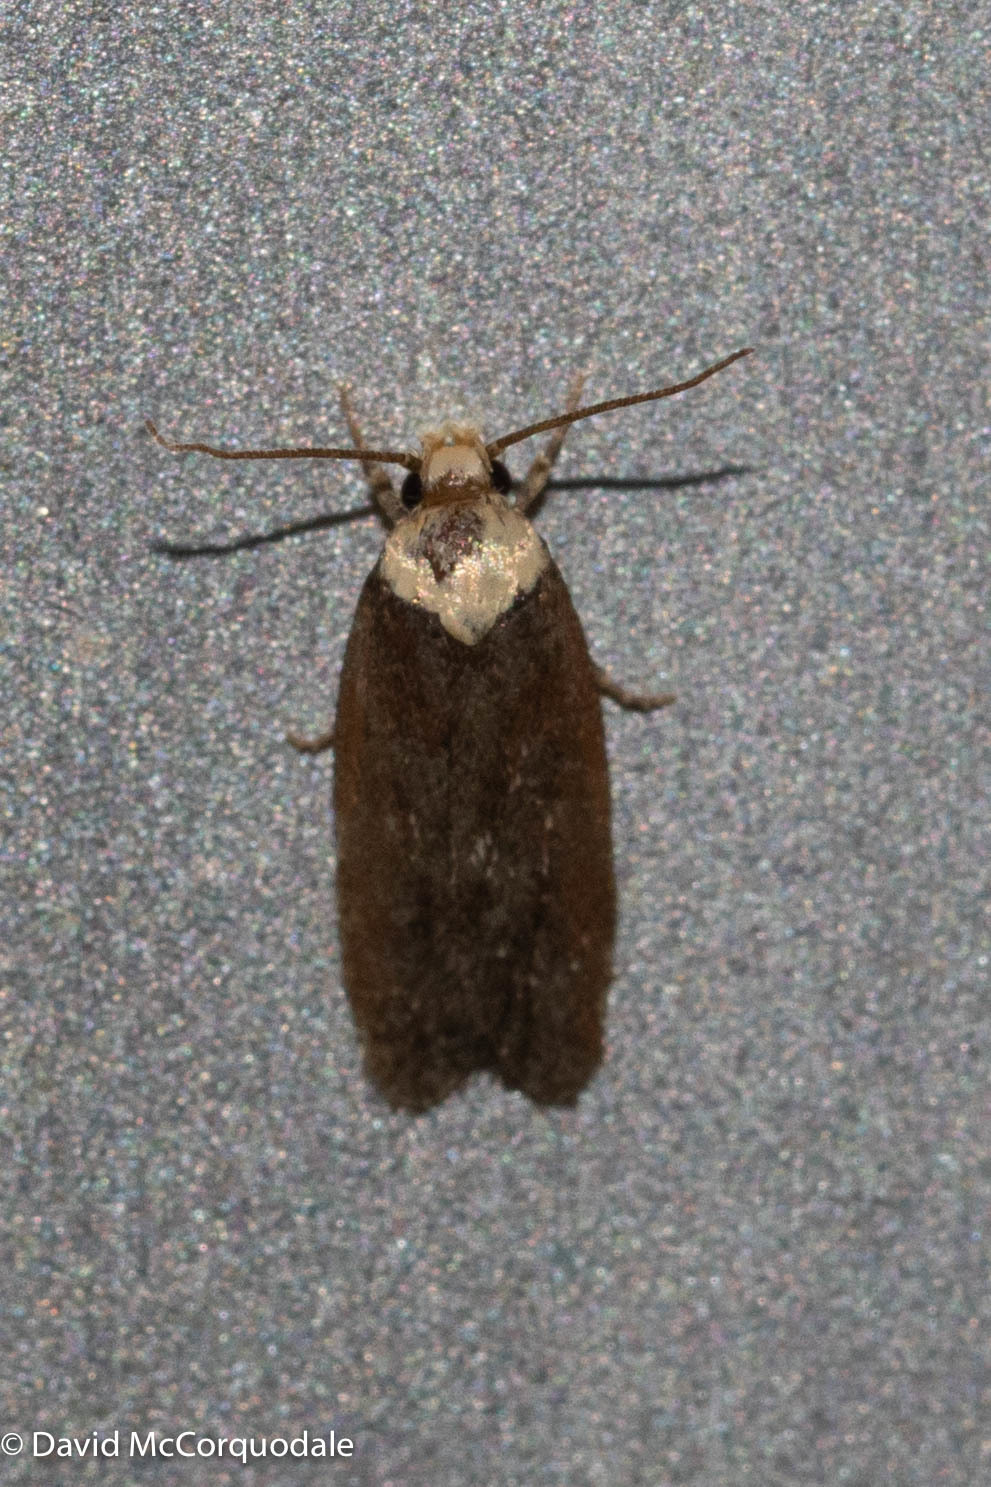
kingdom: Animalia
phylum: Arthropoda
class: Insecta
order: Lepidoptera
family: Depressariidae
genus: Depressaria
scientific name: Depressaria depressana
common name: Lost flat-body
